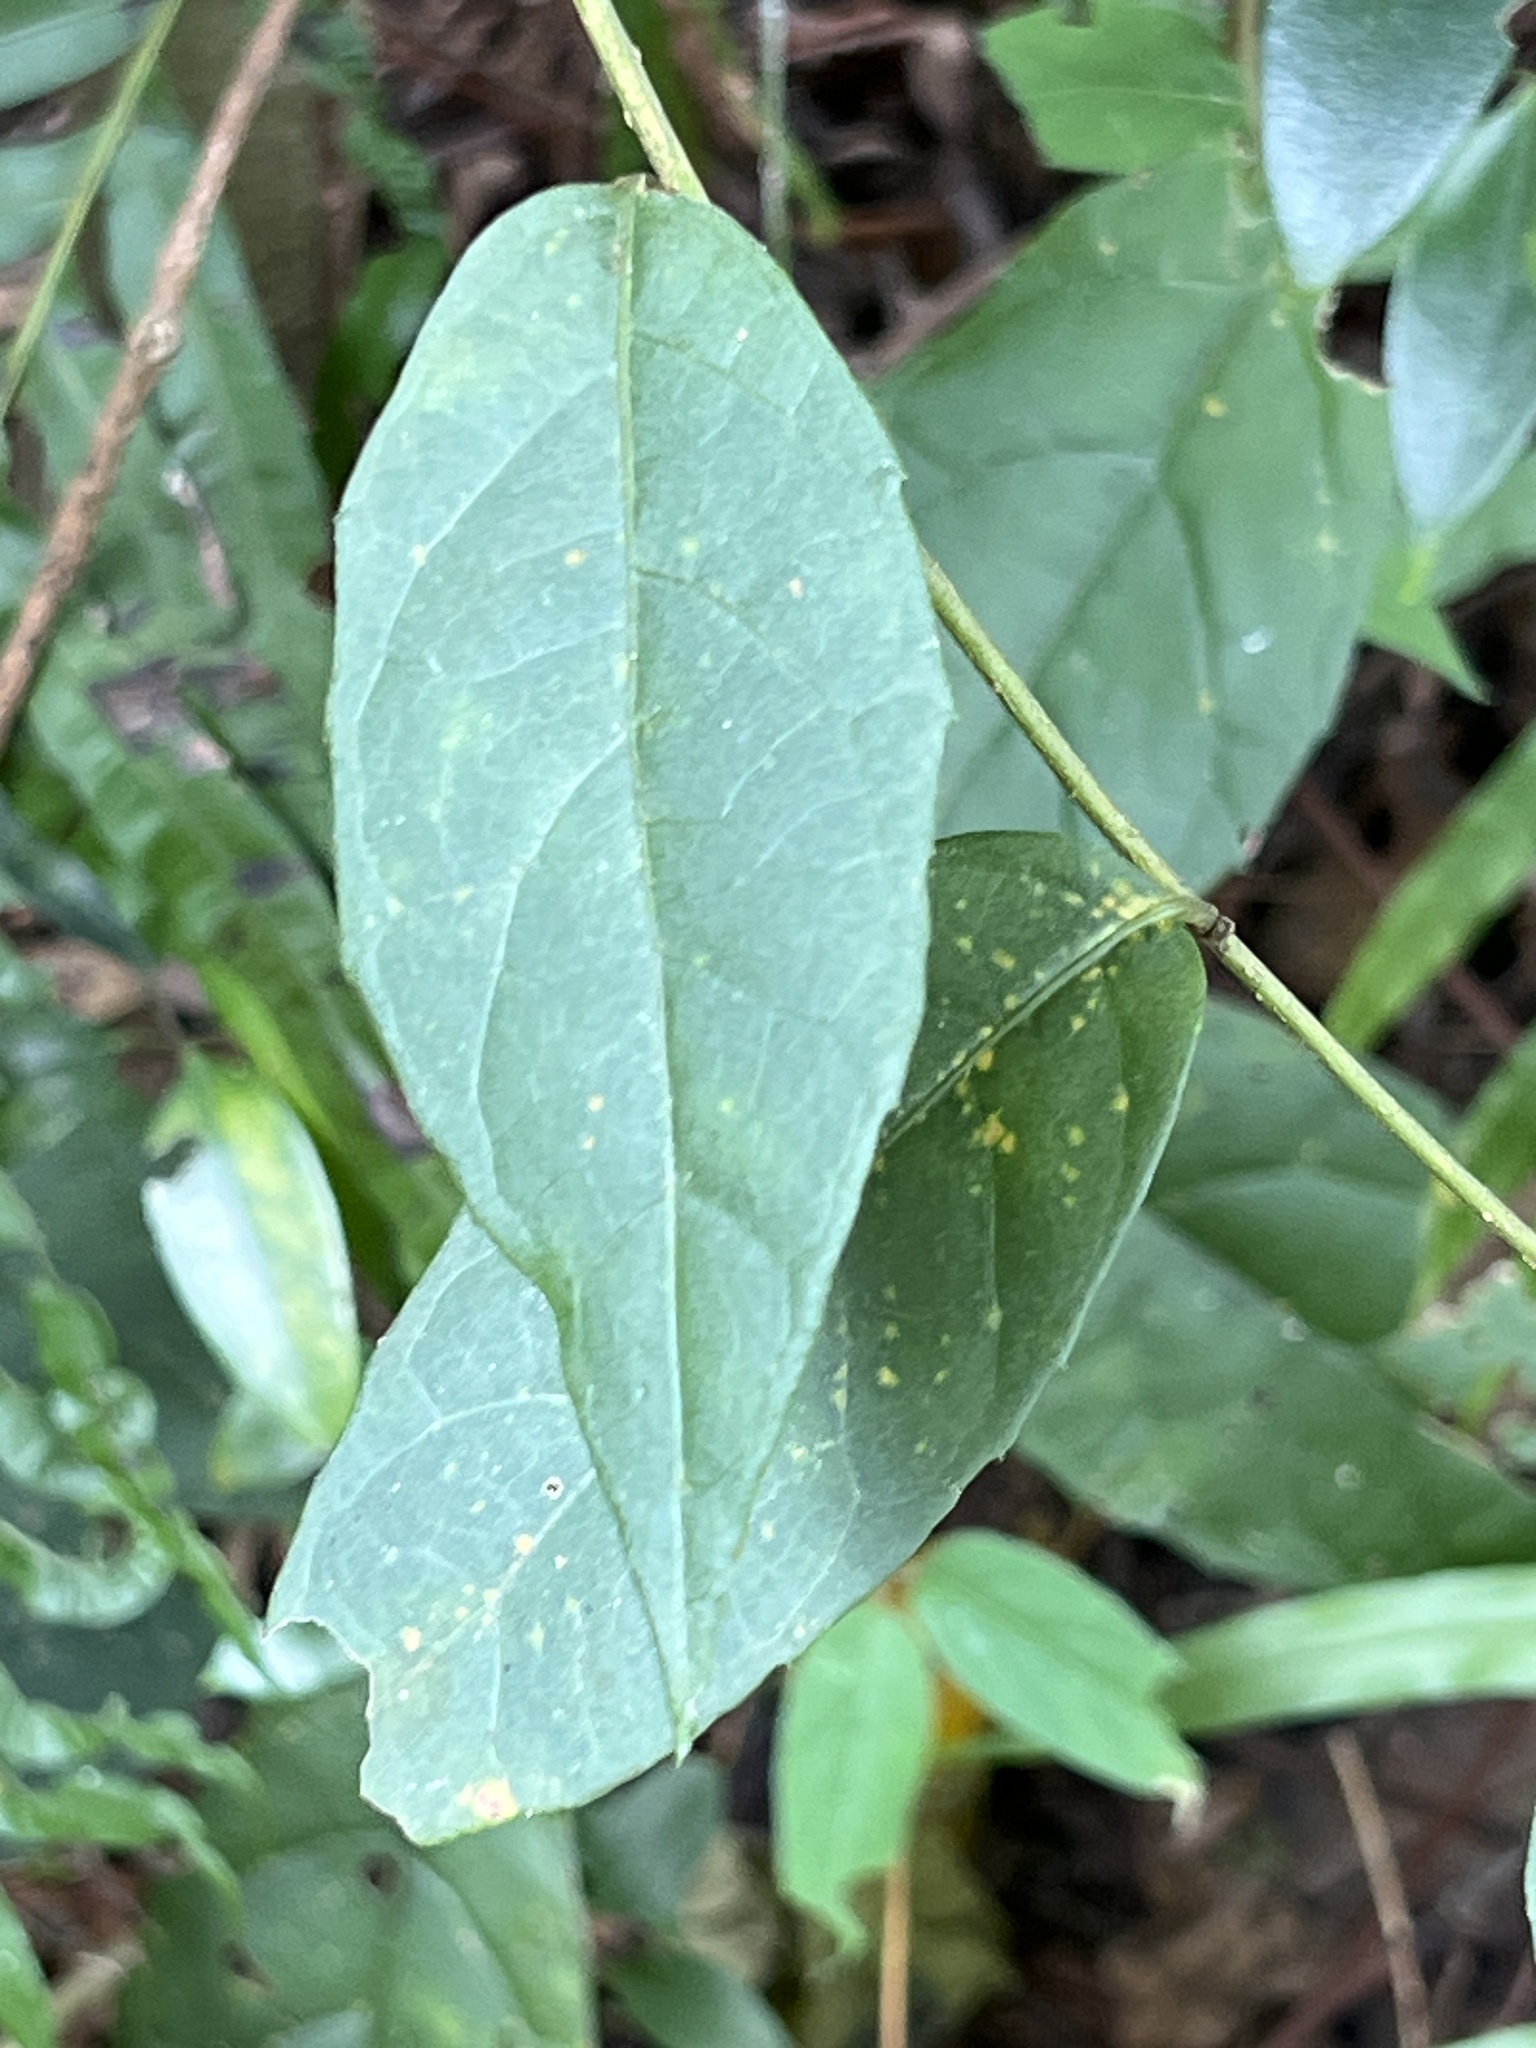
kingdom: Plantae
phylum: Tracheophyta
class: Magnoliopsida
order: Asterales
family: Asteraceae
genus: Decaneuropsis
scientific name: Decaneuropsis gratiosa
